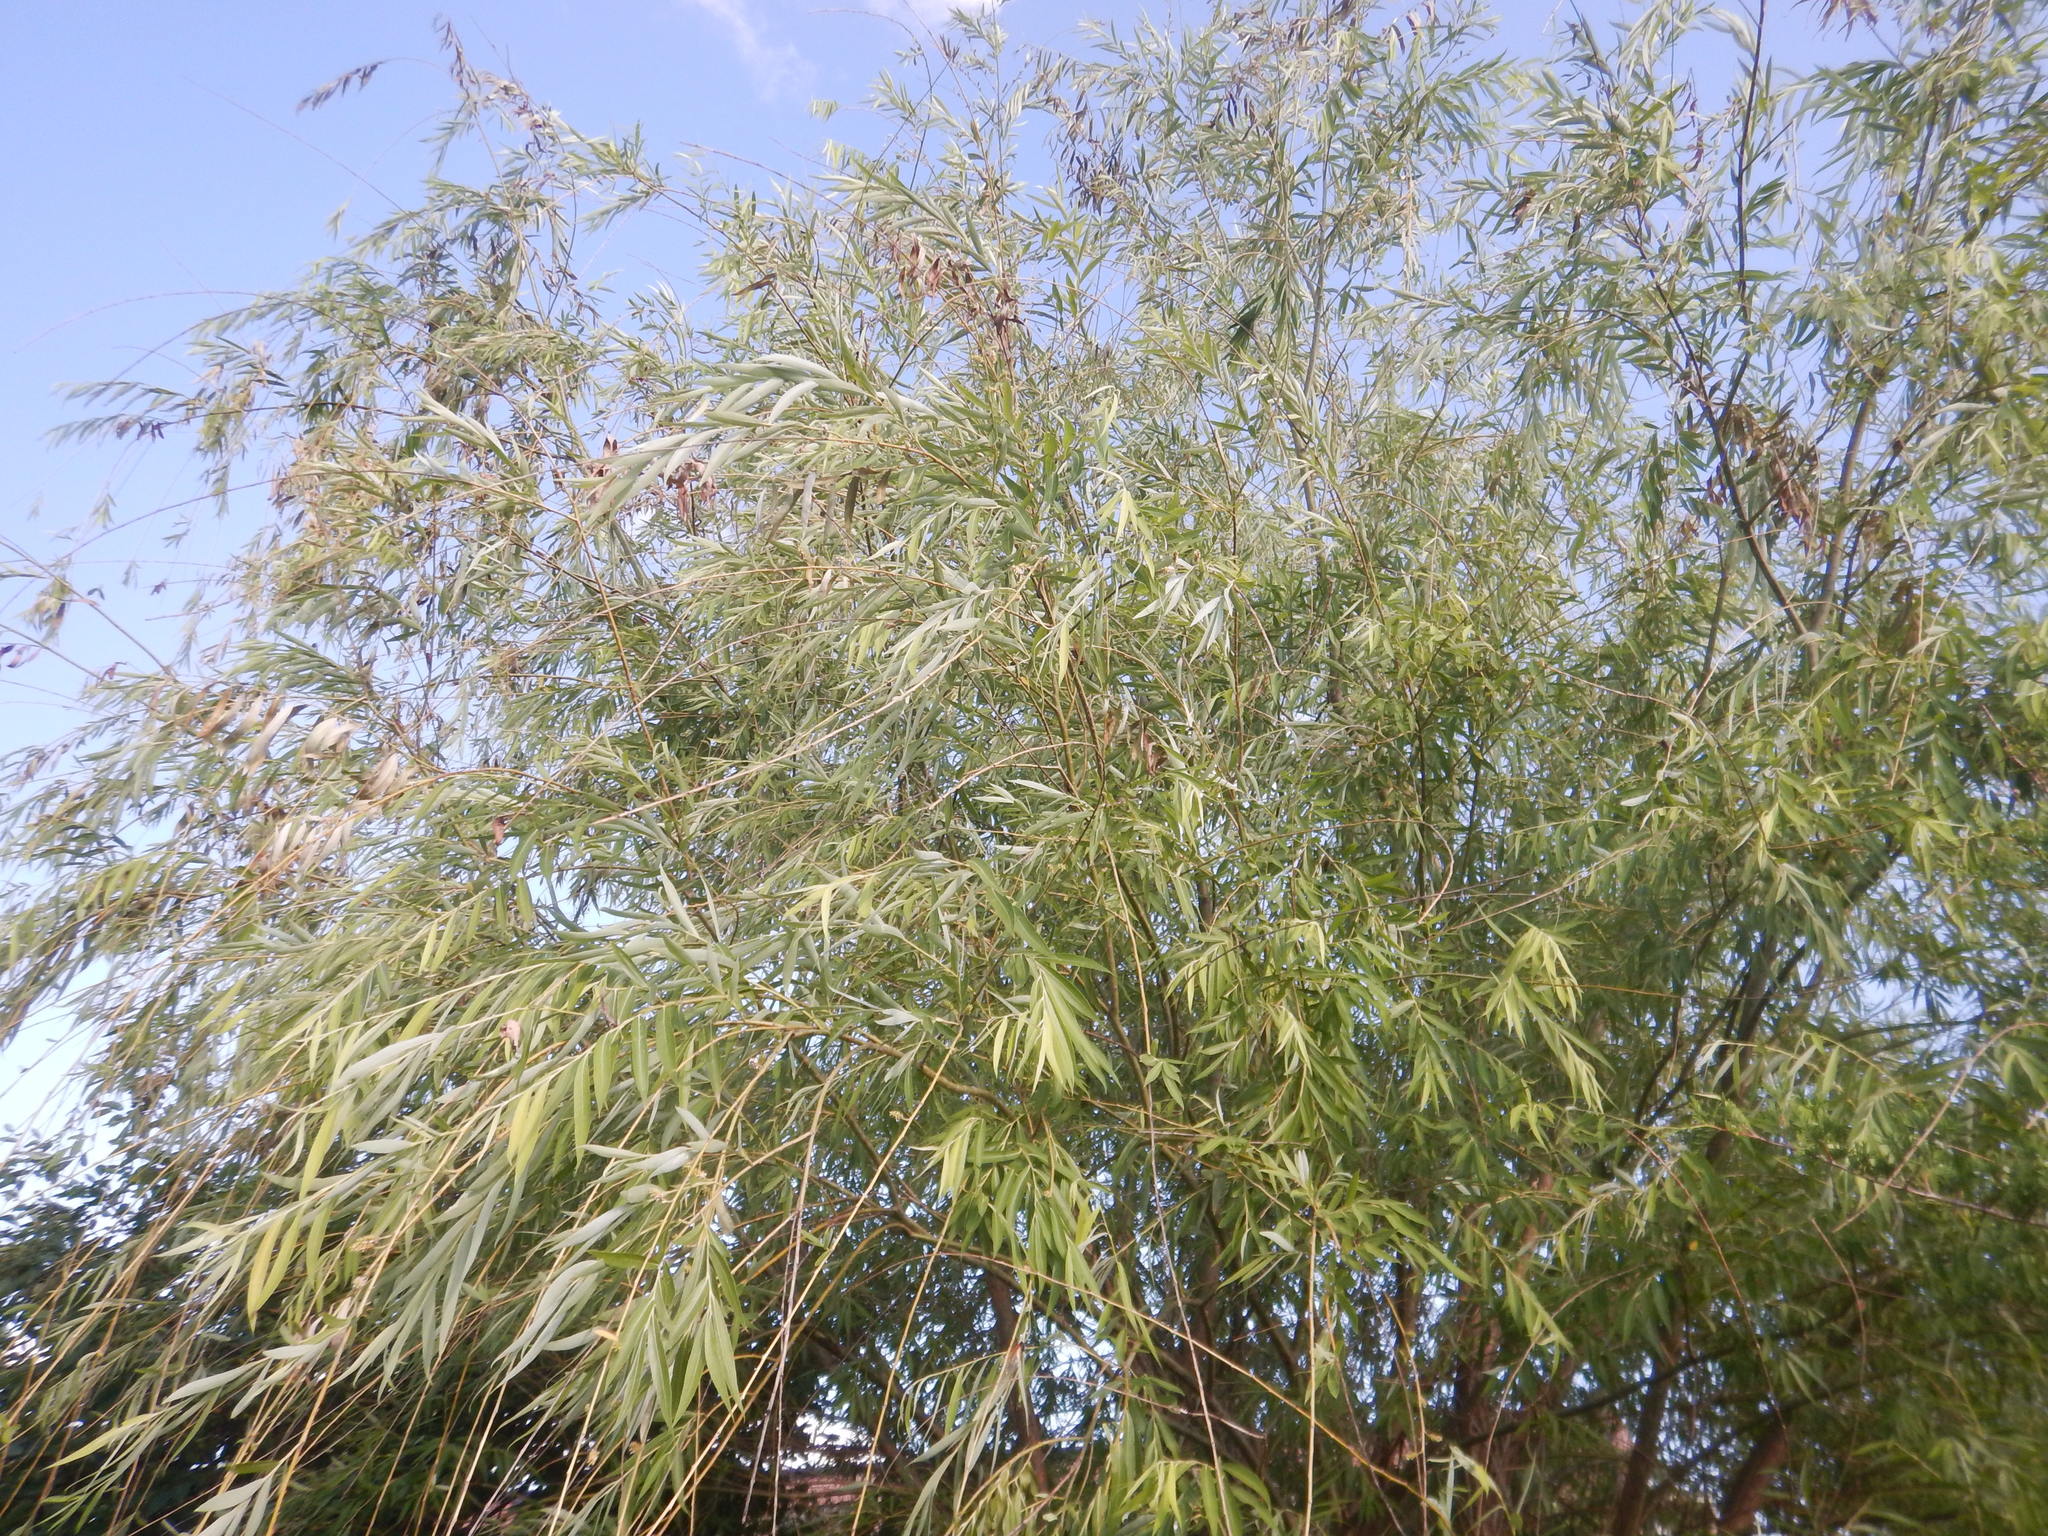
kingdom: Plantae
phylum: Tracheophyta
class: Magnoliopsida
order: Malpighiales
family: Salicaceae
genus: Salix
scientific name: Salix babylonica
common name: Weeping willow
